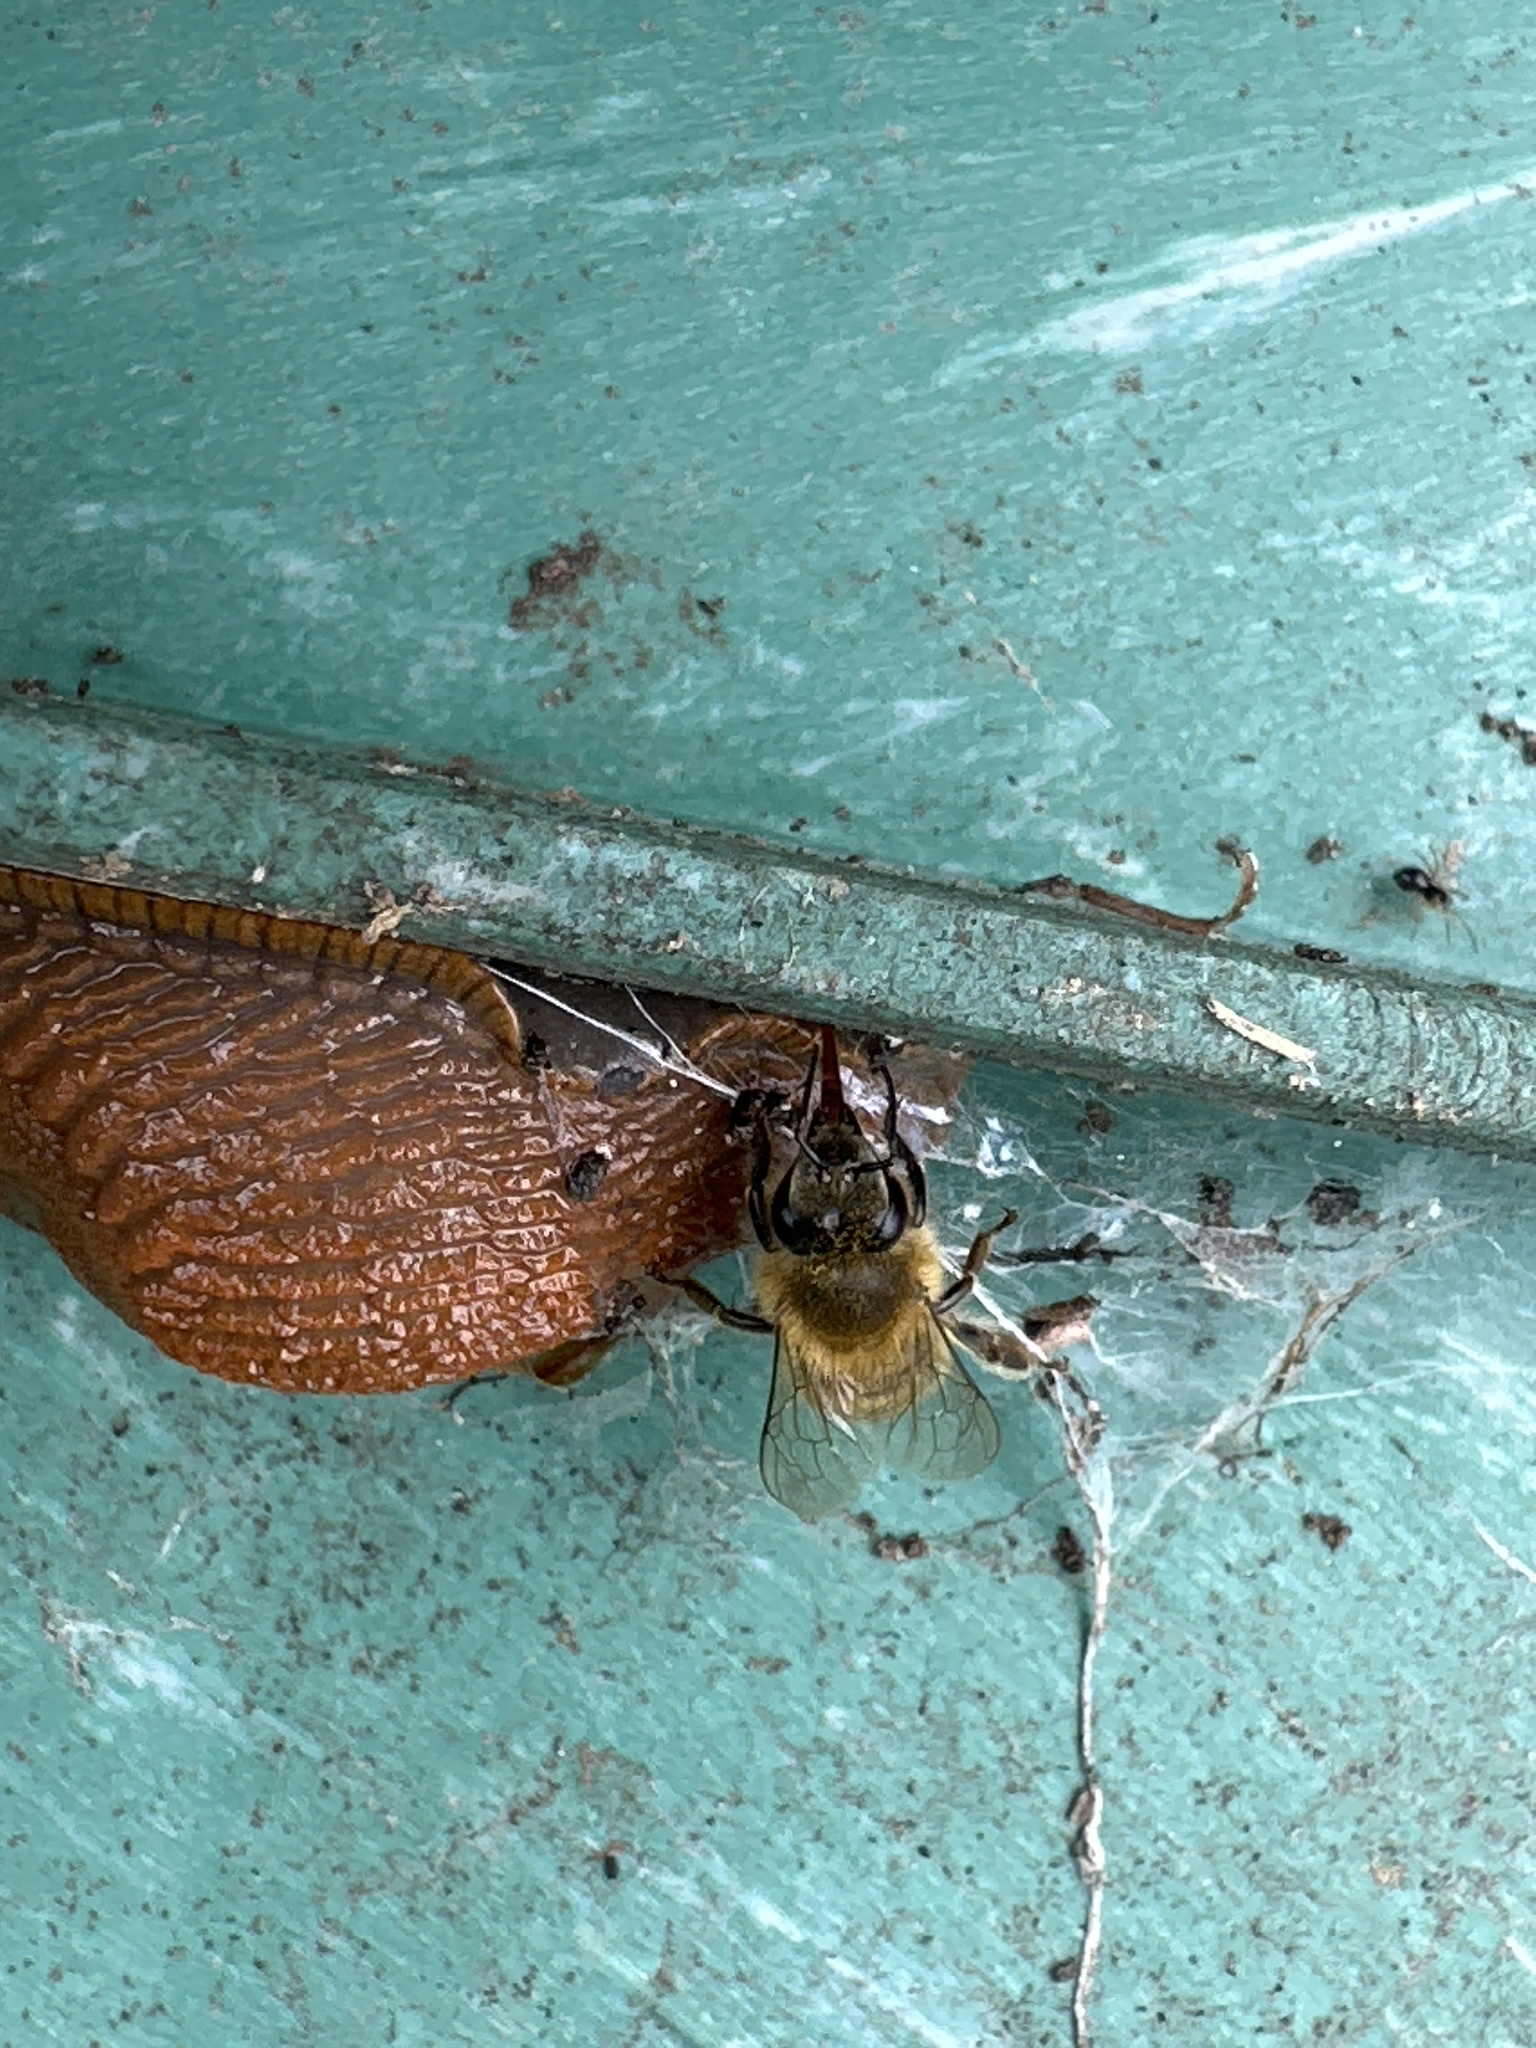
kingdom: Animalia
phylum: Arthropoda
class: Insecta
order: Hymenoptera
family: Apidae
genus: Apis
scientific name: Apis mellifera
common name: Honey bee
